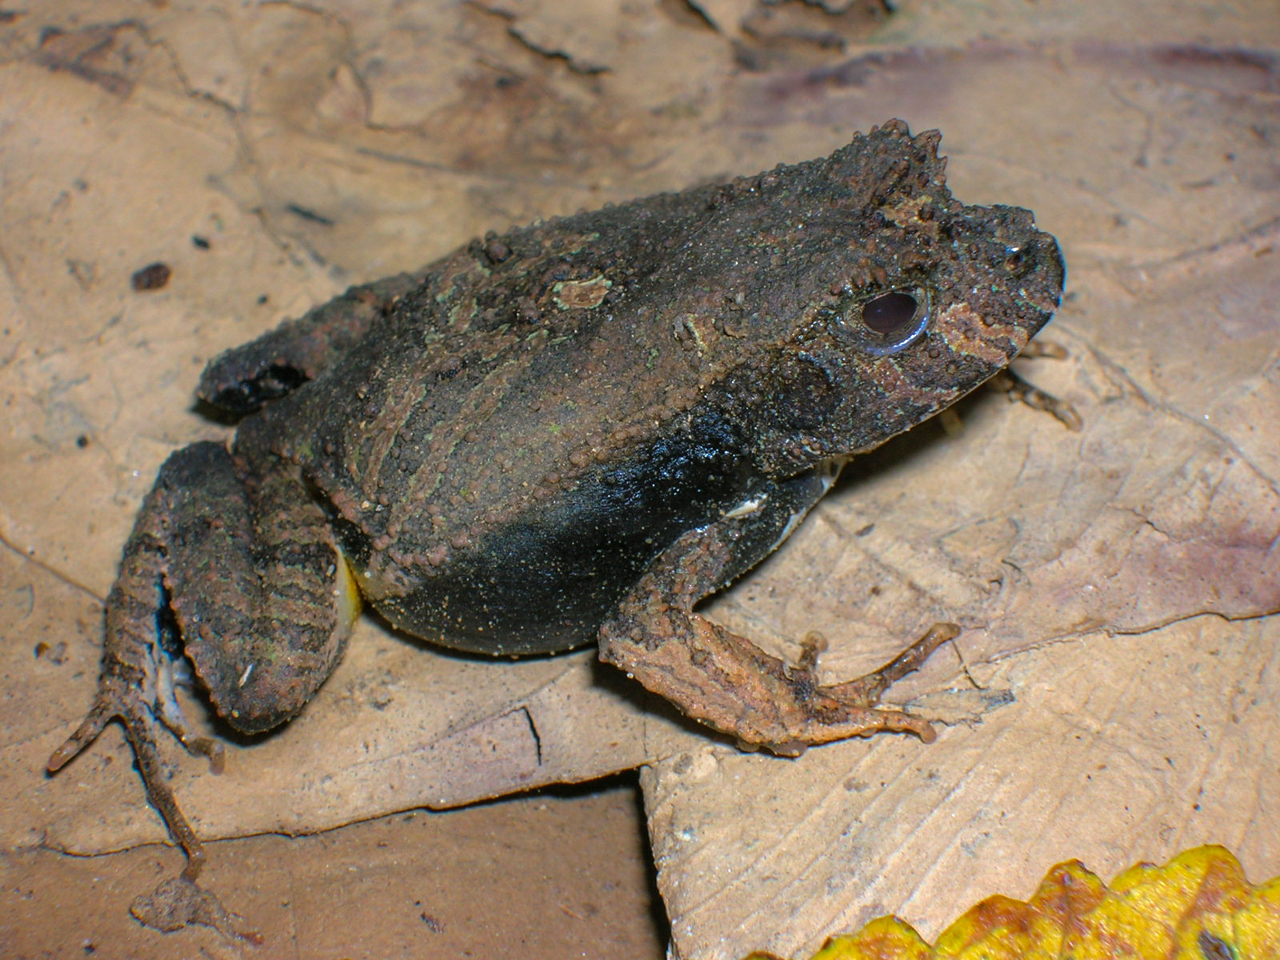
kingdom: Animalia
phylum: Chordata
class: Amphibia
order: Anura
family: Leptodactylidae
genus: Edalorhina
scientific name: Edalorhina perezi
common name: Perez’s snouted frog
